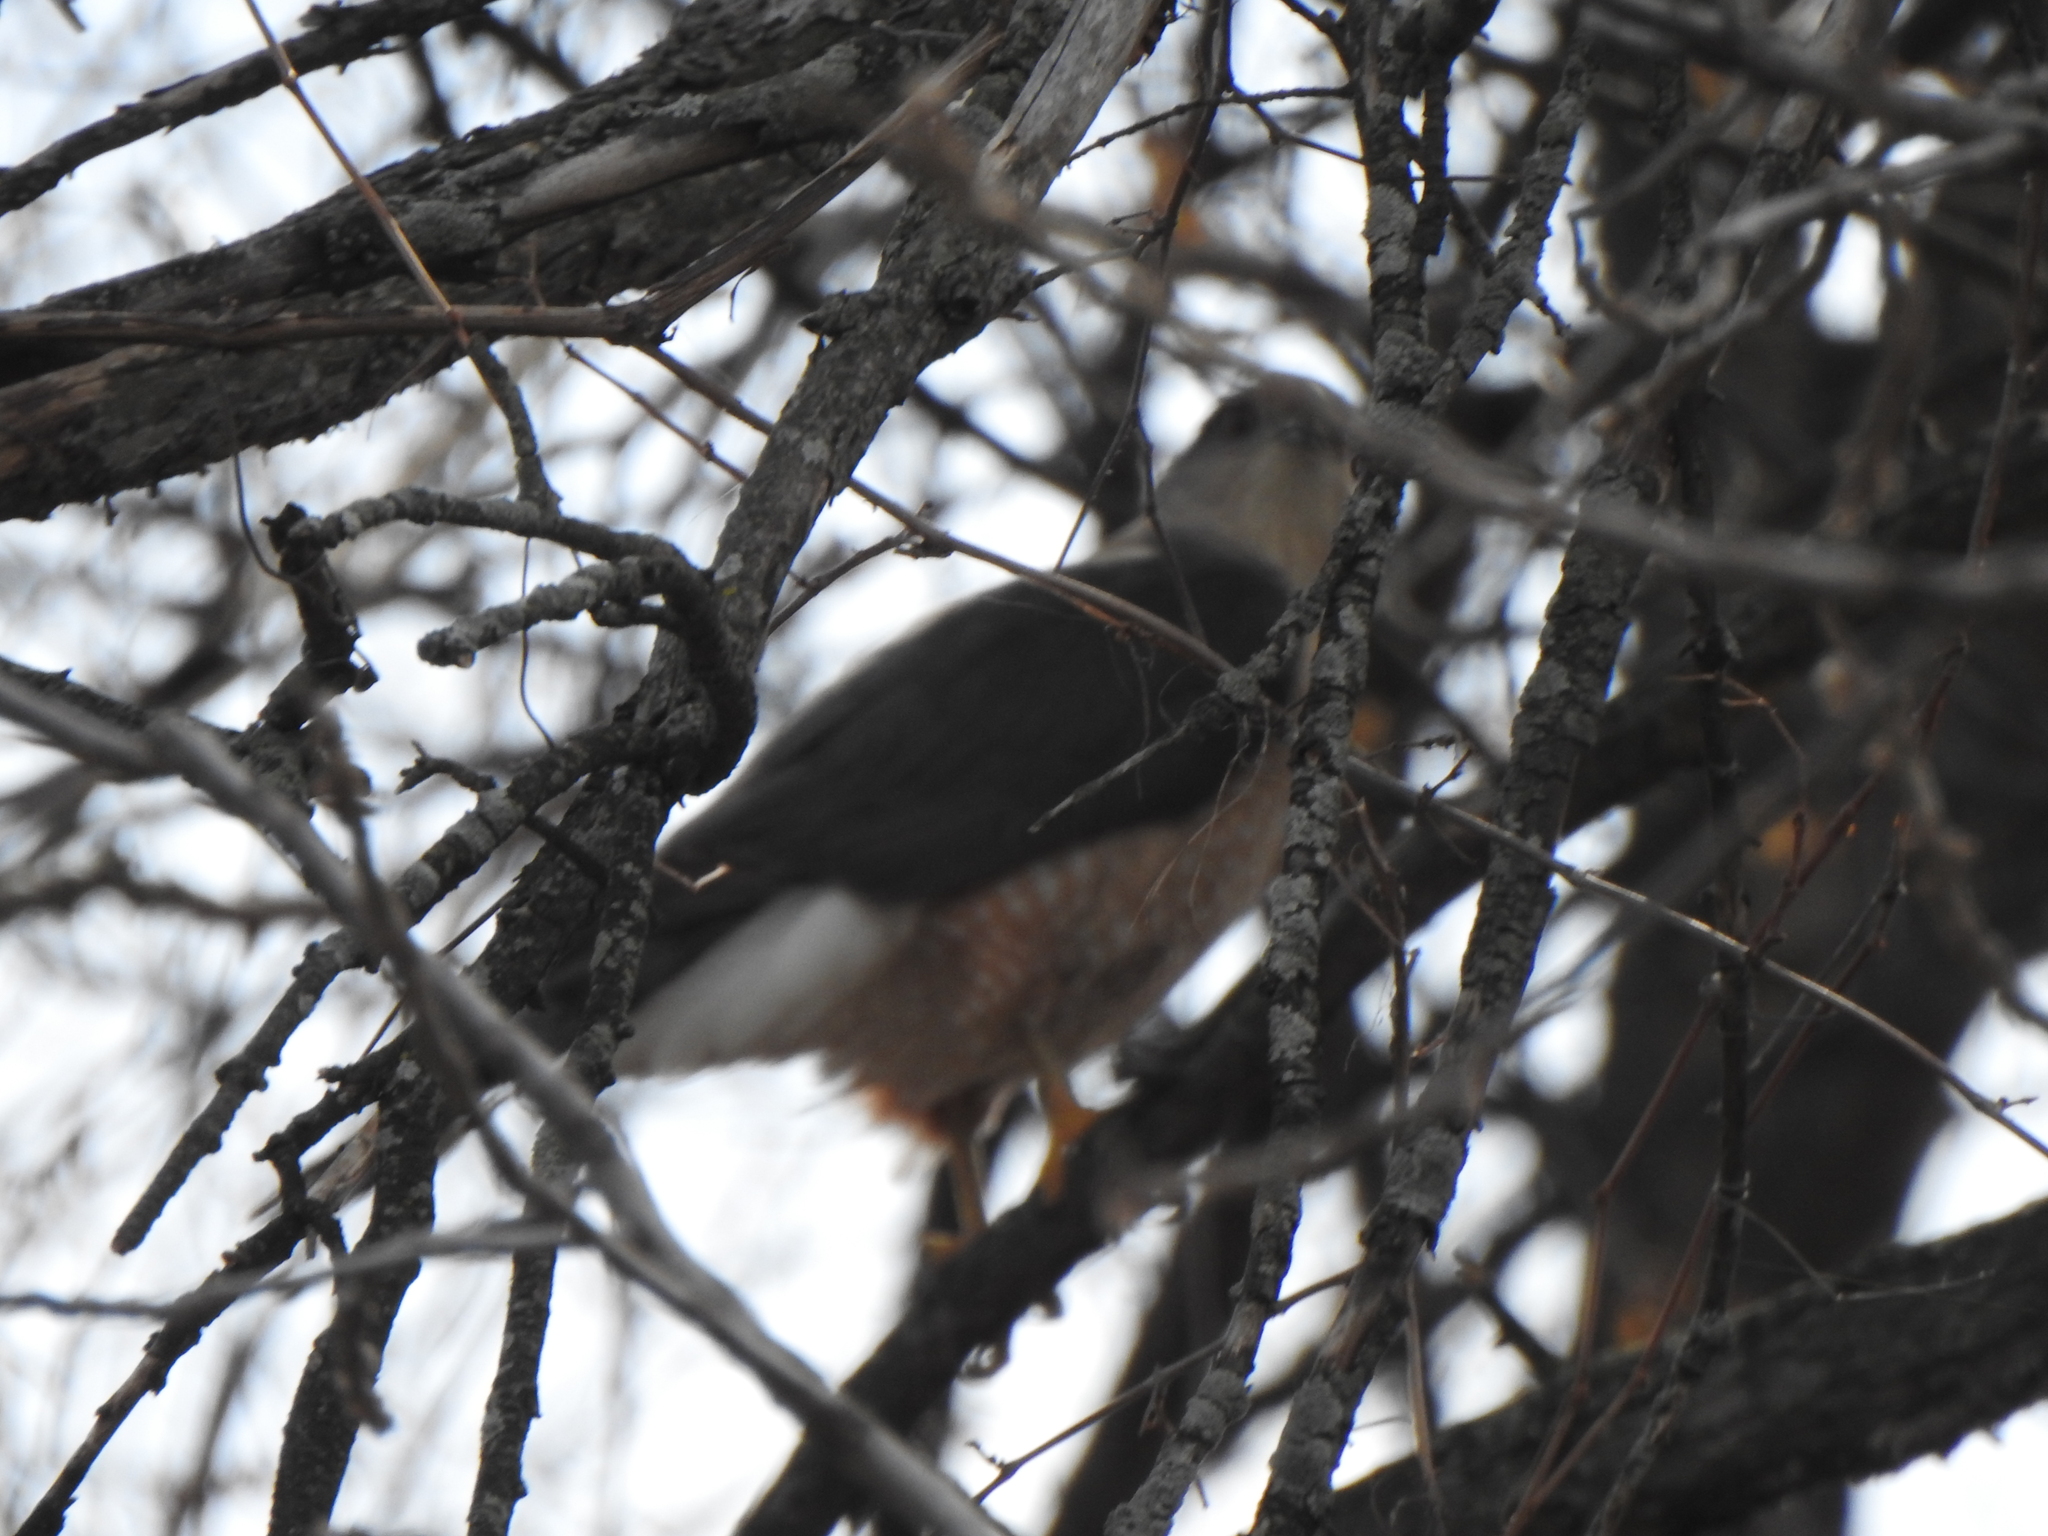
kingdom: Animalia
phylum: Chordata
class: Aves
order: Accipitriformes
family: Accipitridae
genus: Accipiter
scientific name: Accipiter cooperii
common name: Cooper's hawk
